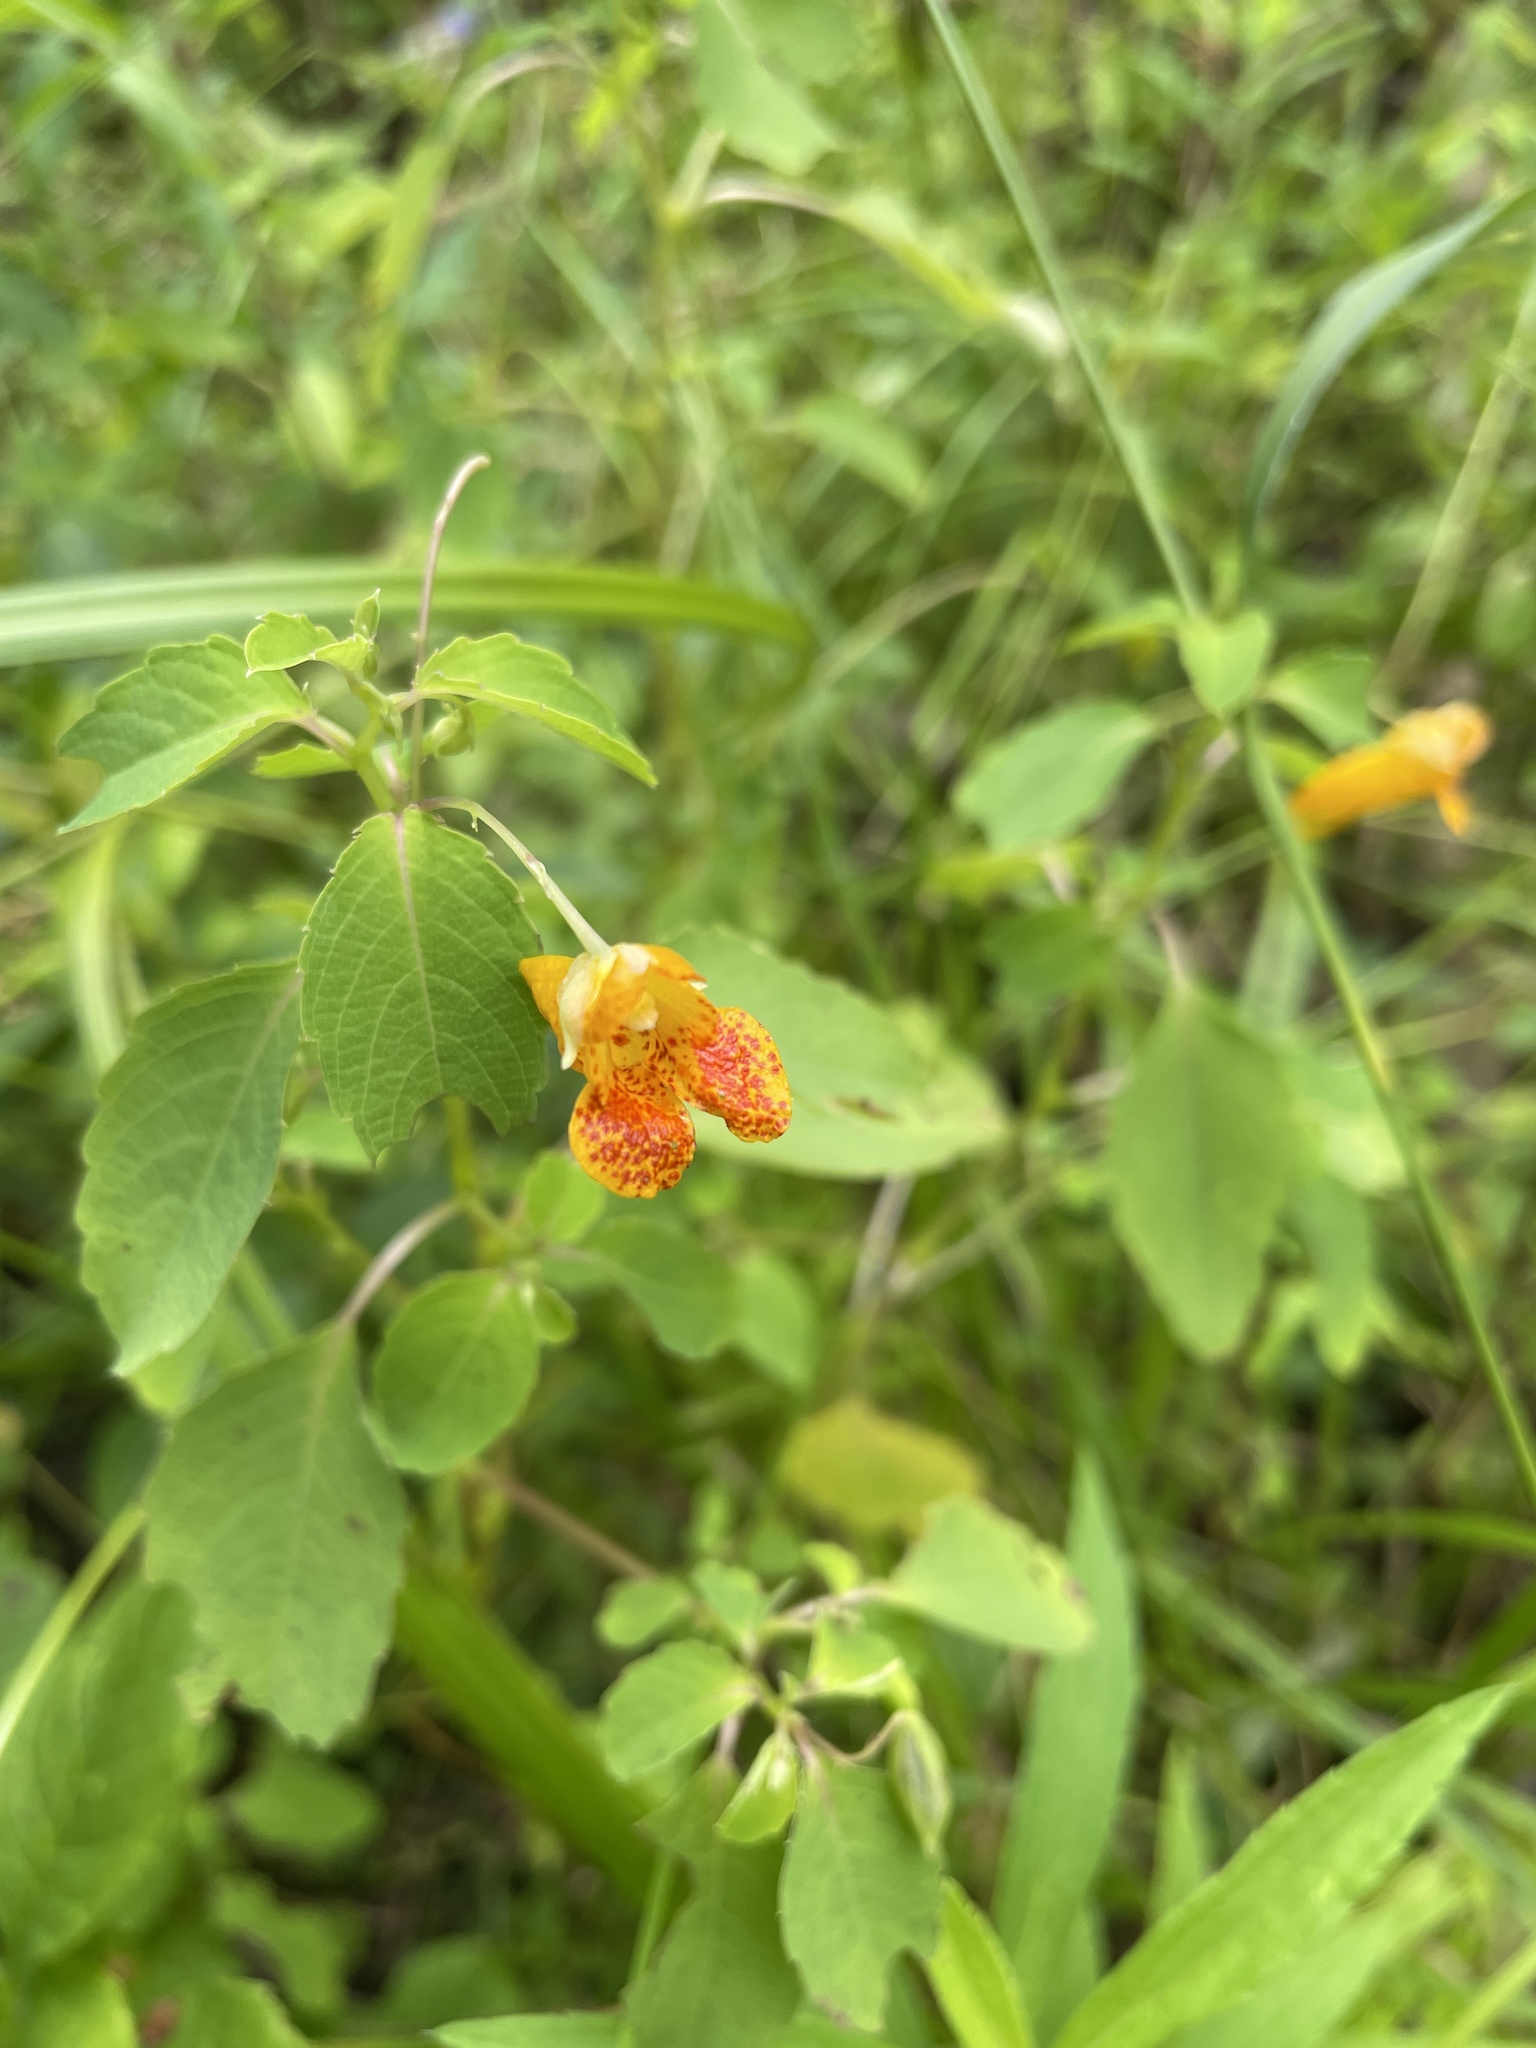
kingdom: Plantae
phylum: Tracheophyta
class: Magnoliopsida
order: Ericales
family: Balsaminaceae
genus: Impatiens
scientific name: Impatiens capensis
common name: Orange balsam
